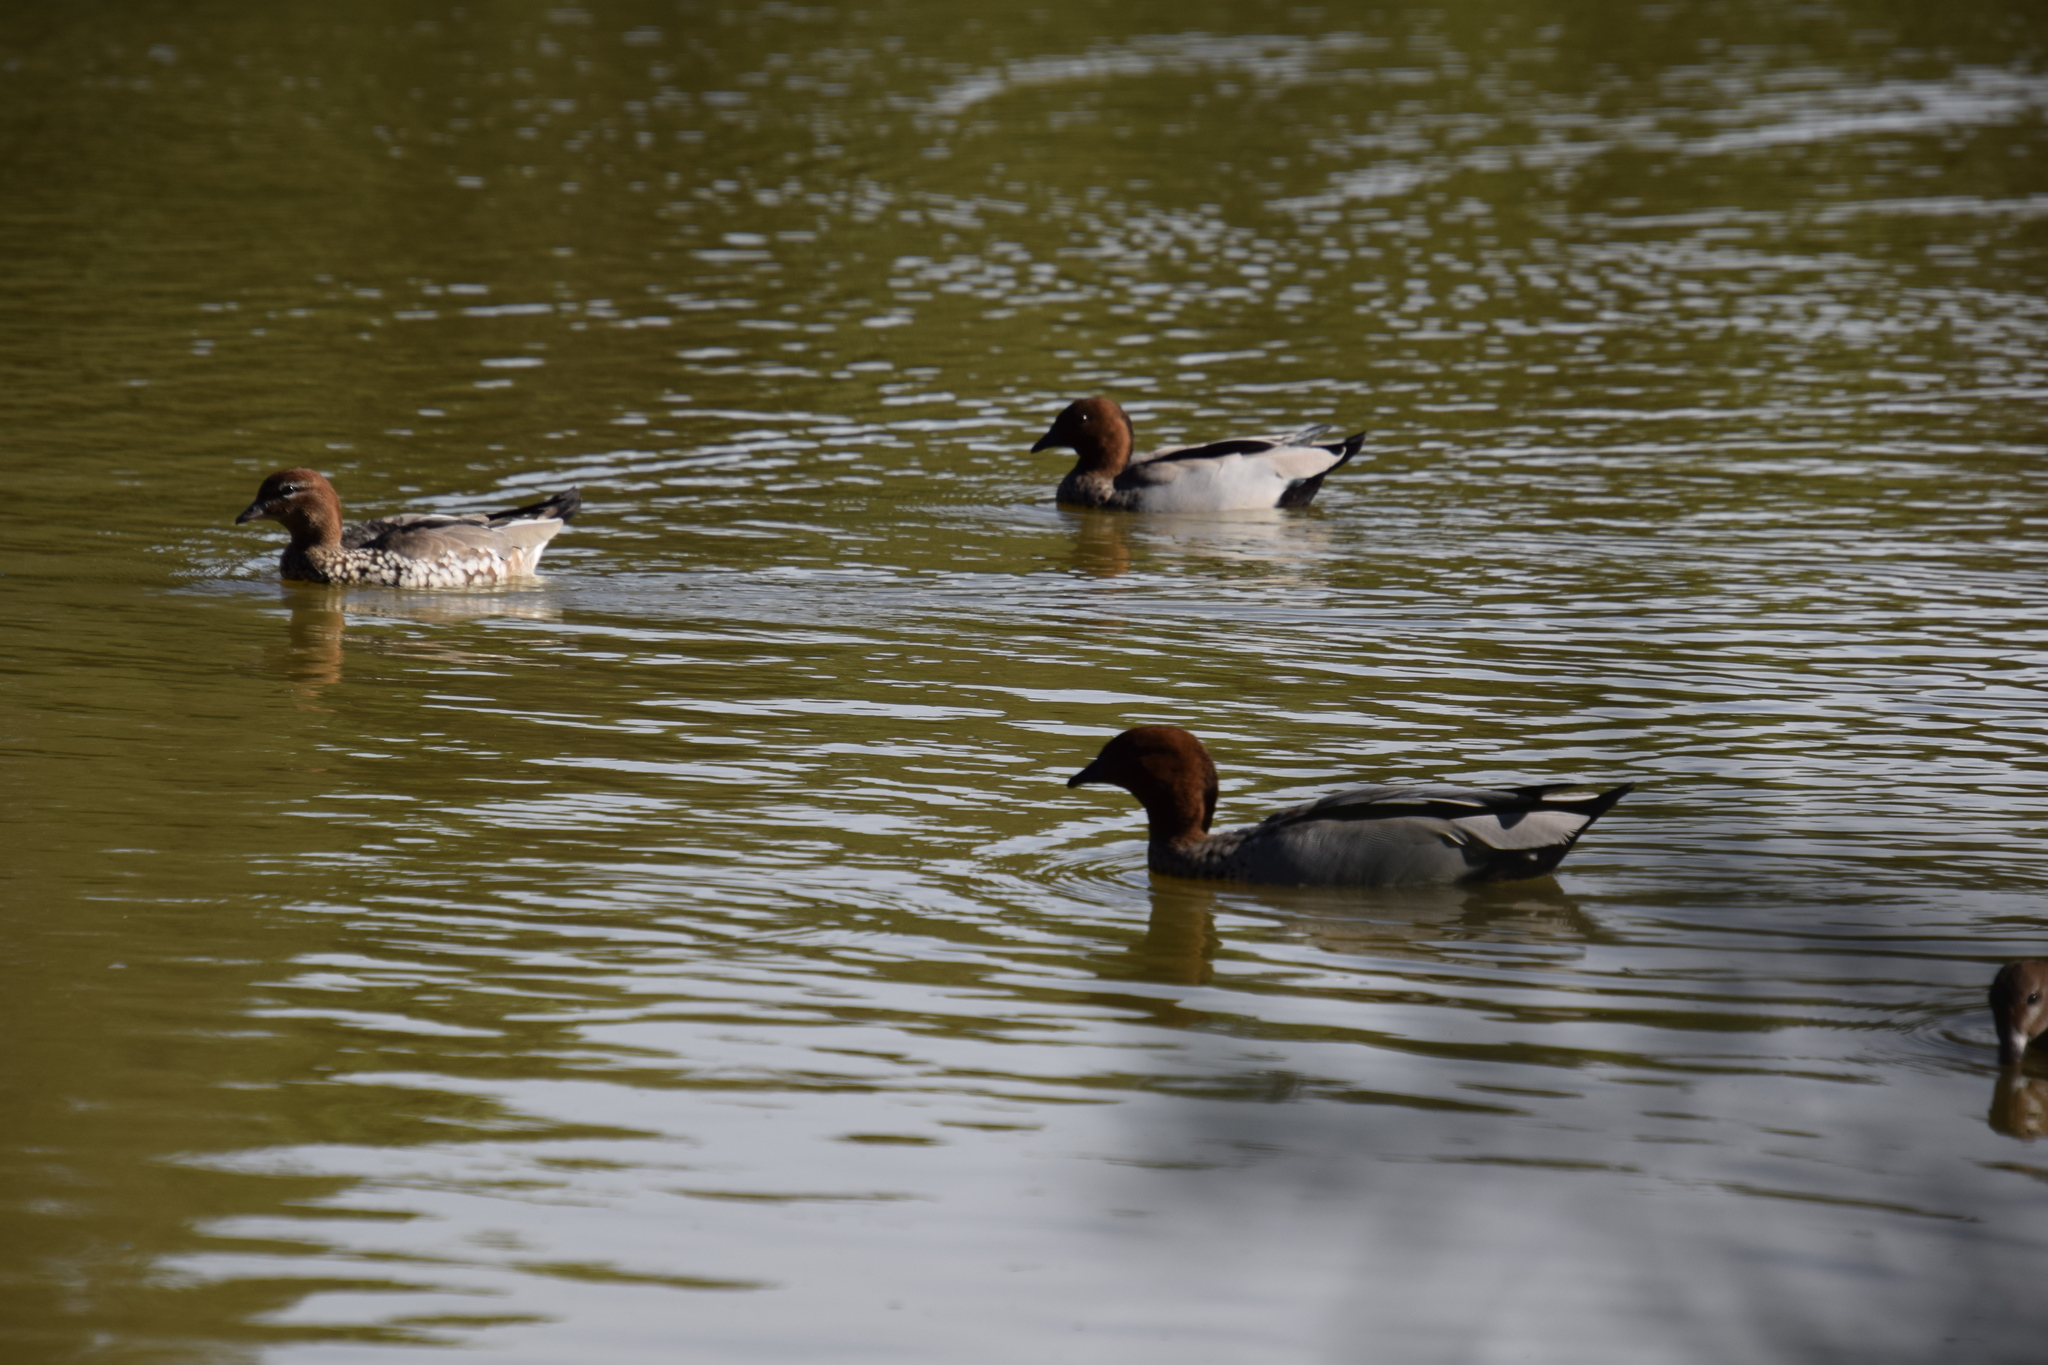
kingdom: Animalia
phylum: Chordata
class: Aves
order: Anseriformes
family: Anatidae
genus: Chenonetta
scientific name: Chenonetta jubata
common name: Maned duck
